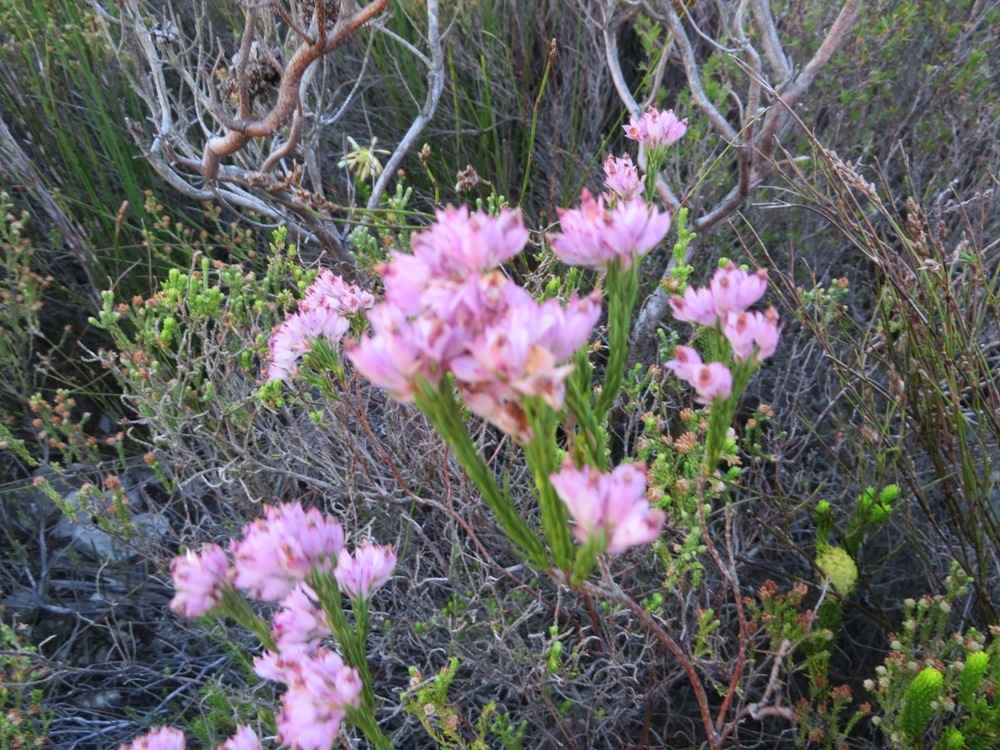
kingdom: Plantae
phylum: Tracheophyta
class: Magnoliopsida
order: Ericales
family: Ericaceae
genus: Erica
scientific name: Erica taxifolia
